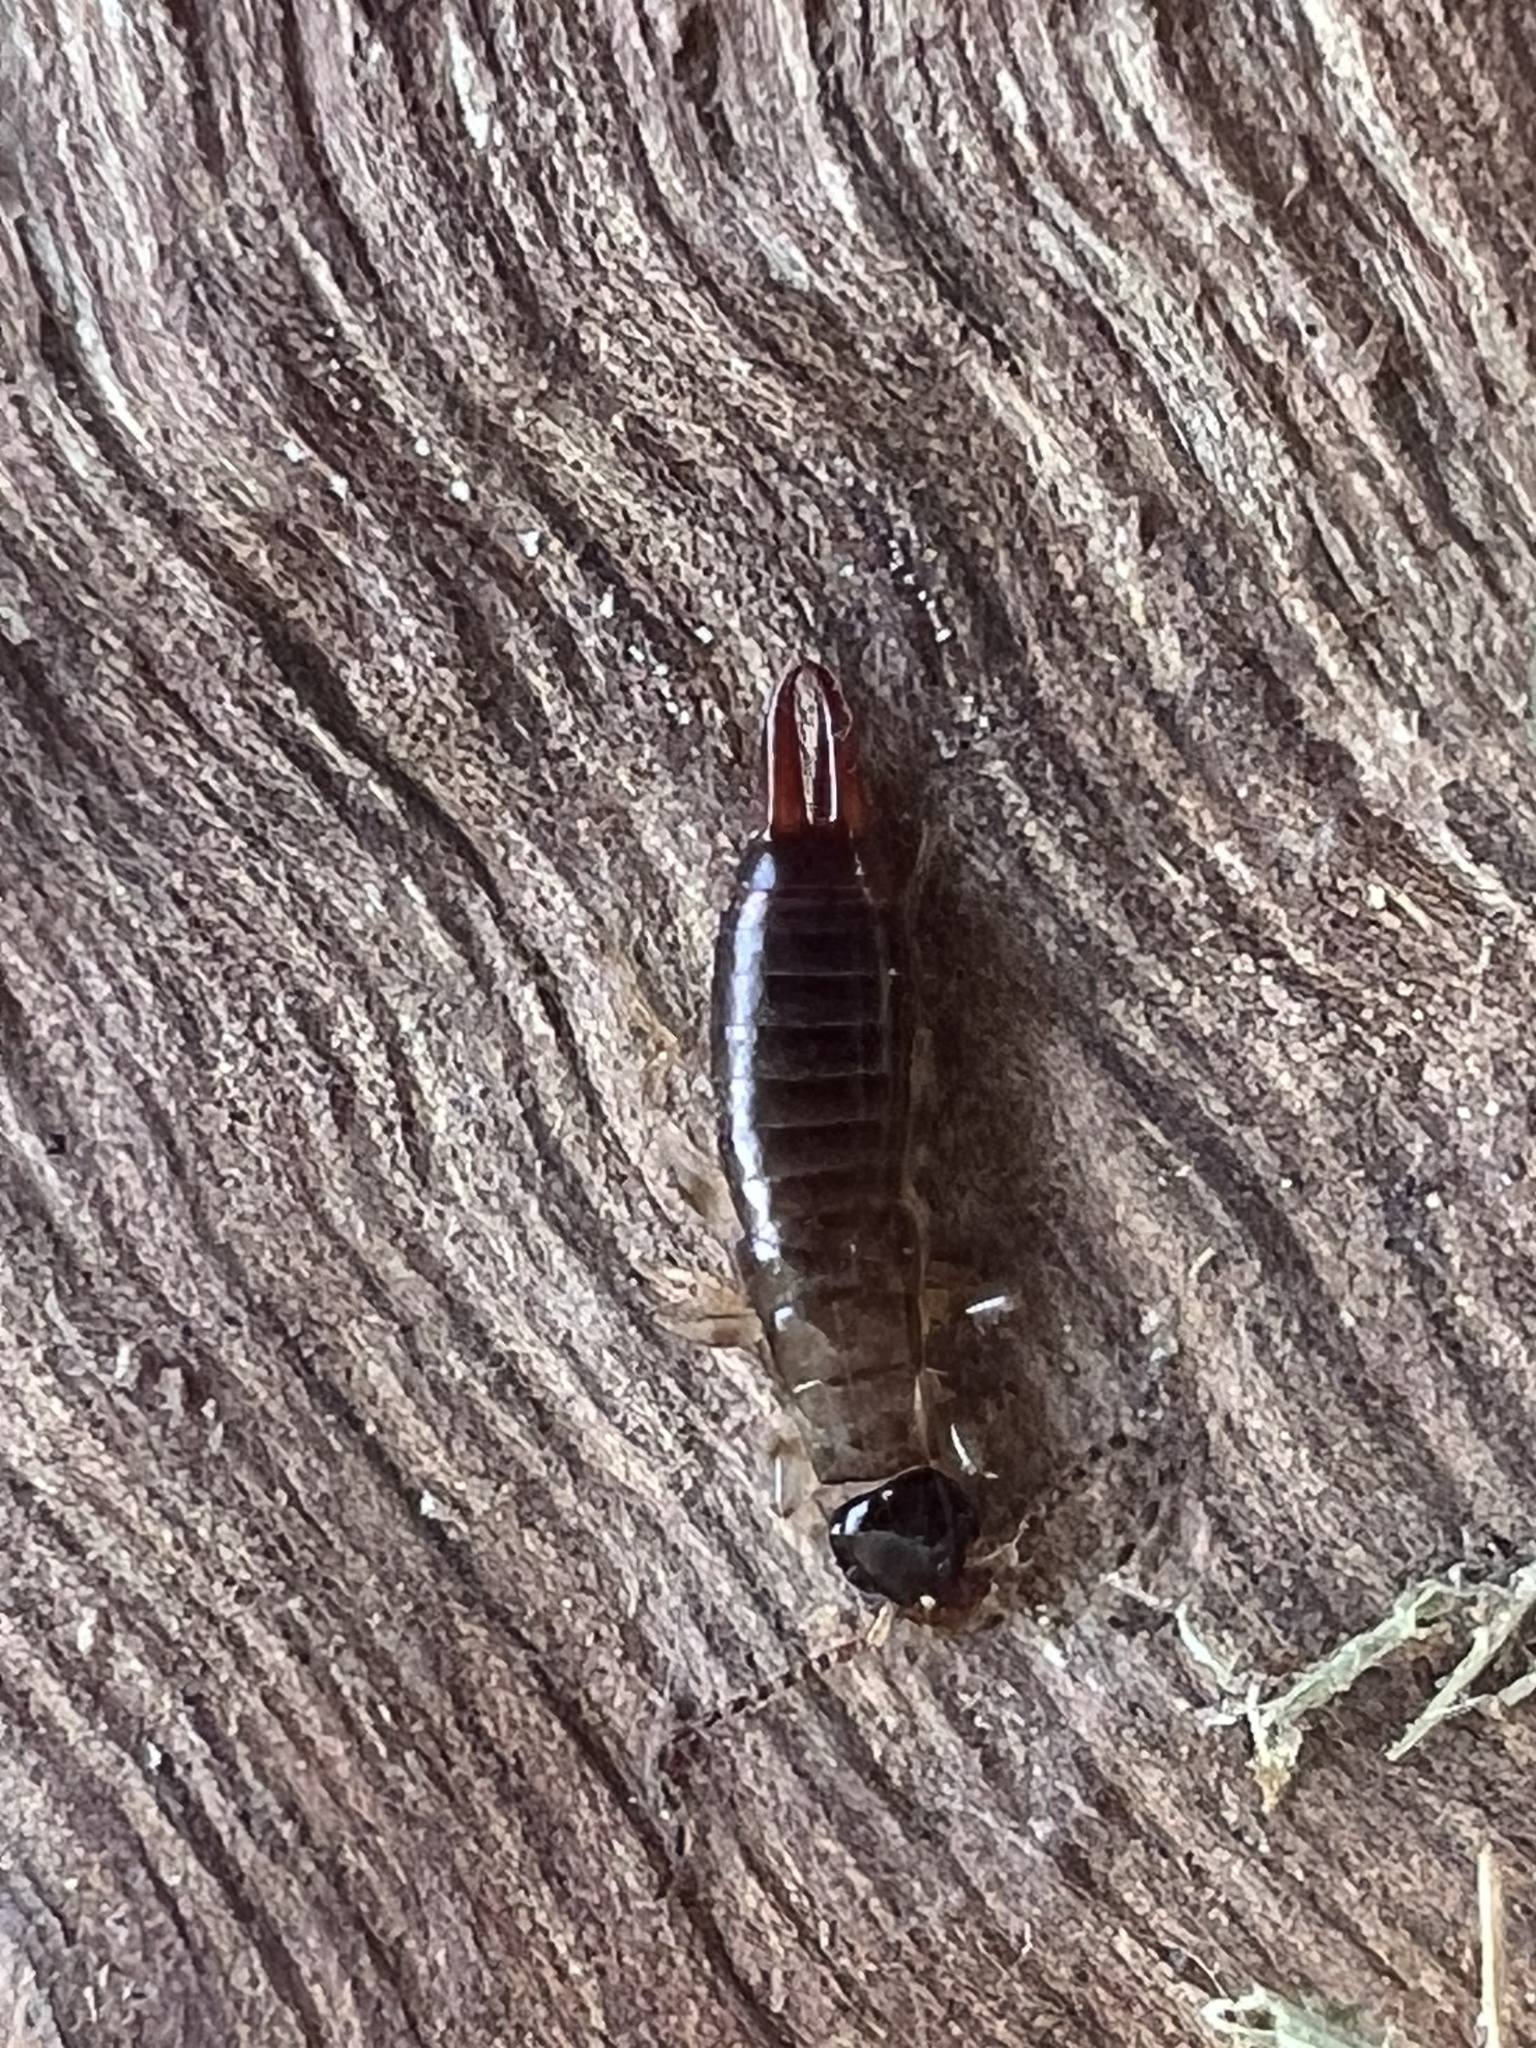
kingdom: Animalia
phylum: Arthropoda
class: Insecta
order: Dermaptera
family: Anisolabididae
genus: Euborellia
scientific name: Euborellia annulipes
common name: Ringlegged earwig
